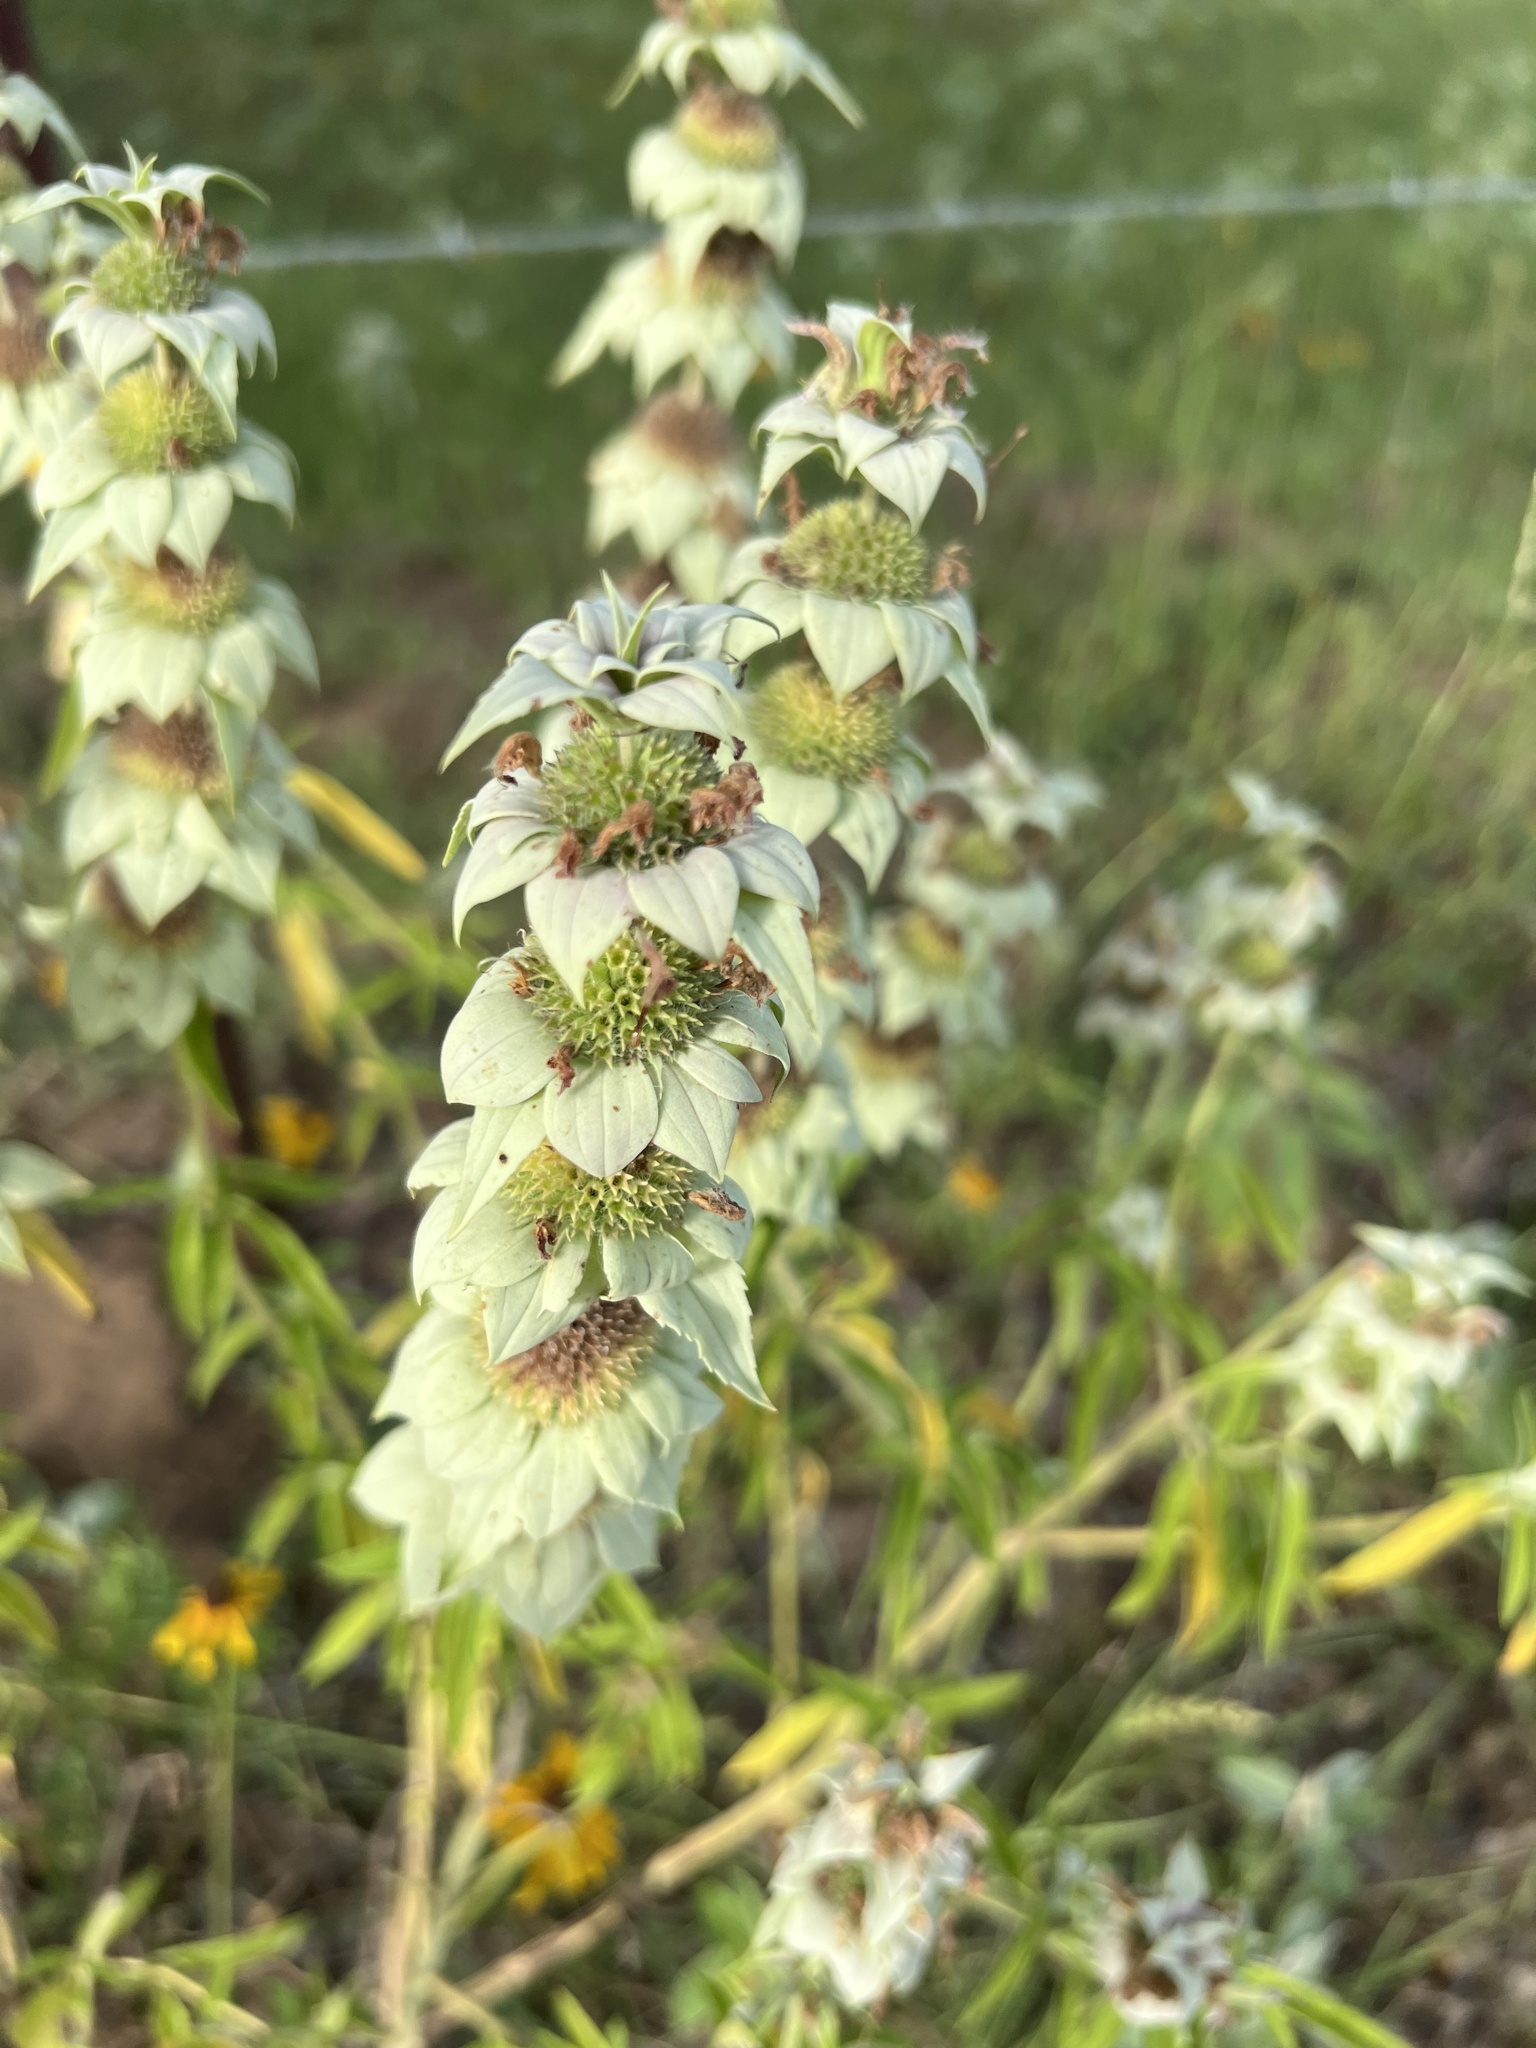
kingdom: Plantae
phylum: Tracheophyta
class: Magnoliopsida
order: Lamiales
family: Lamiaceae
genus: Monarda
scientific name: Monarda punctata
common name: Dotted monarda
